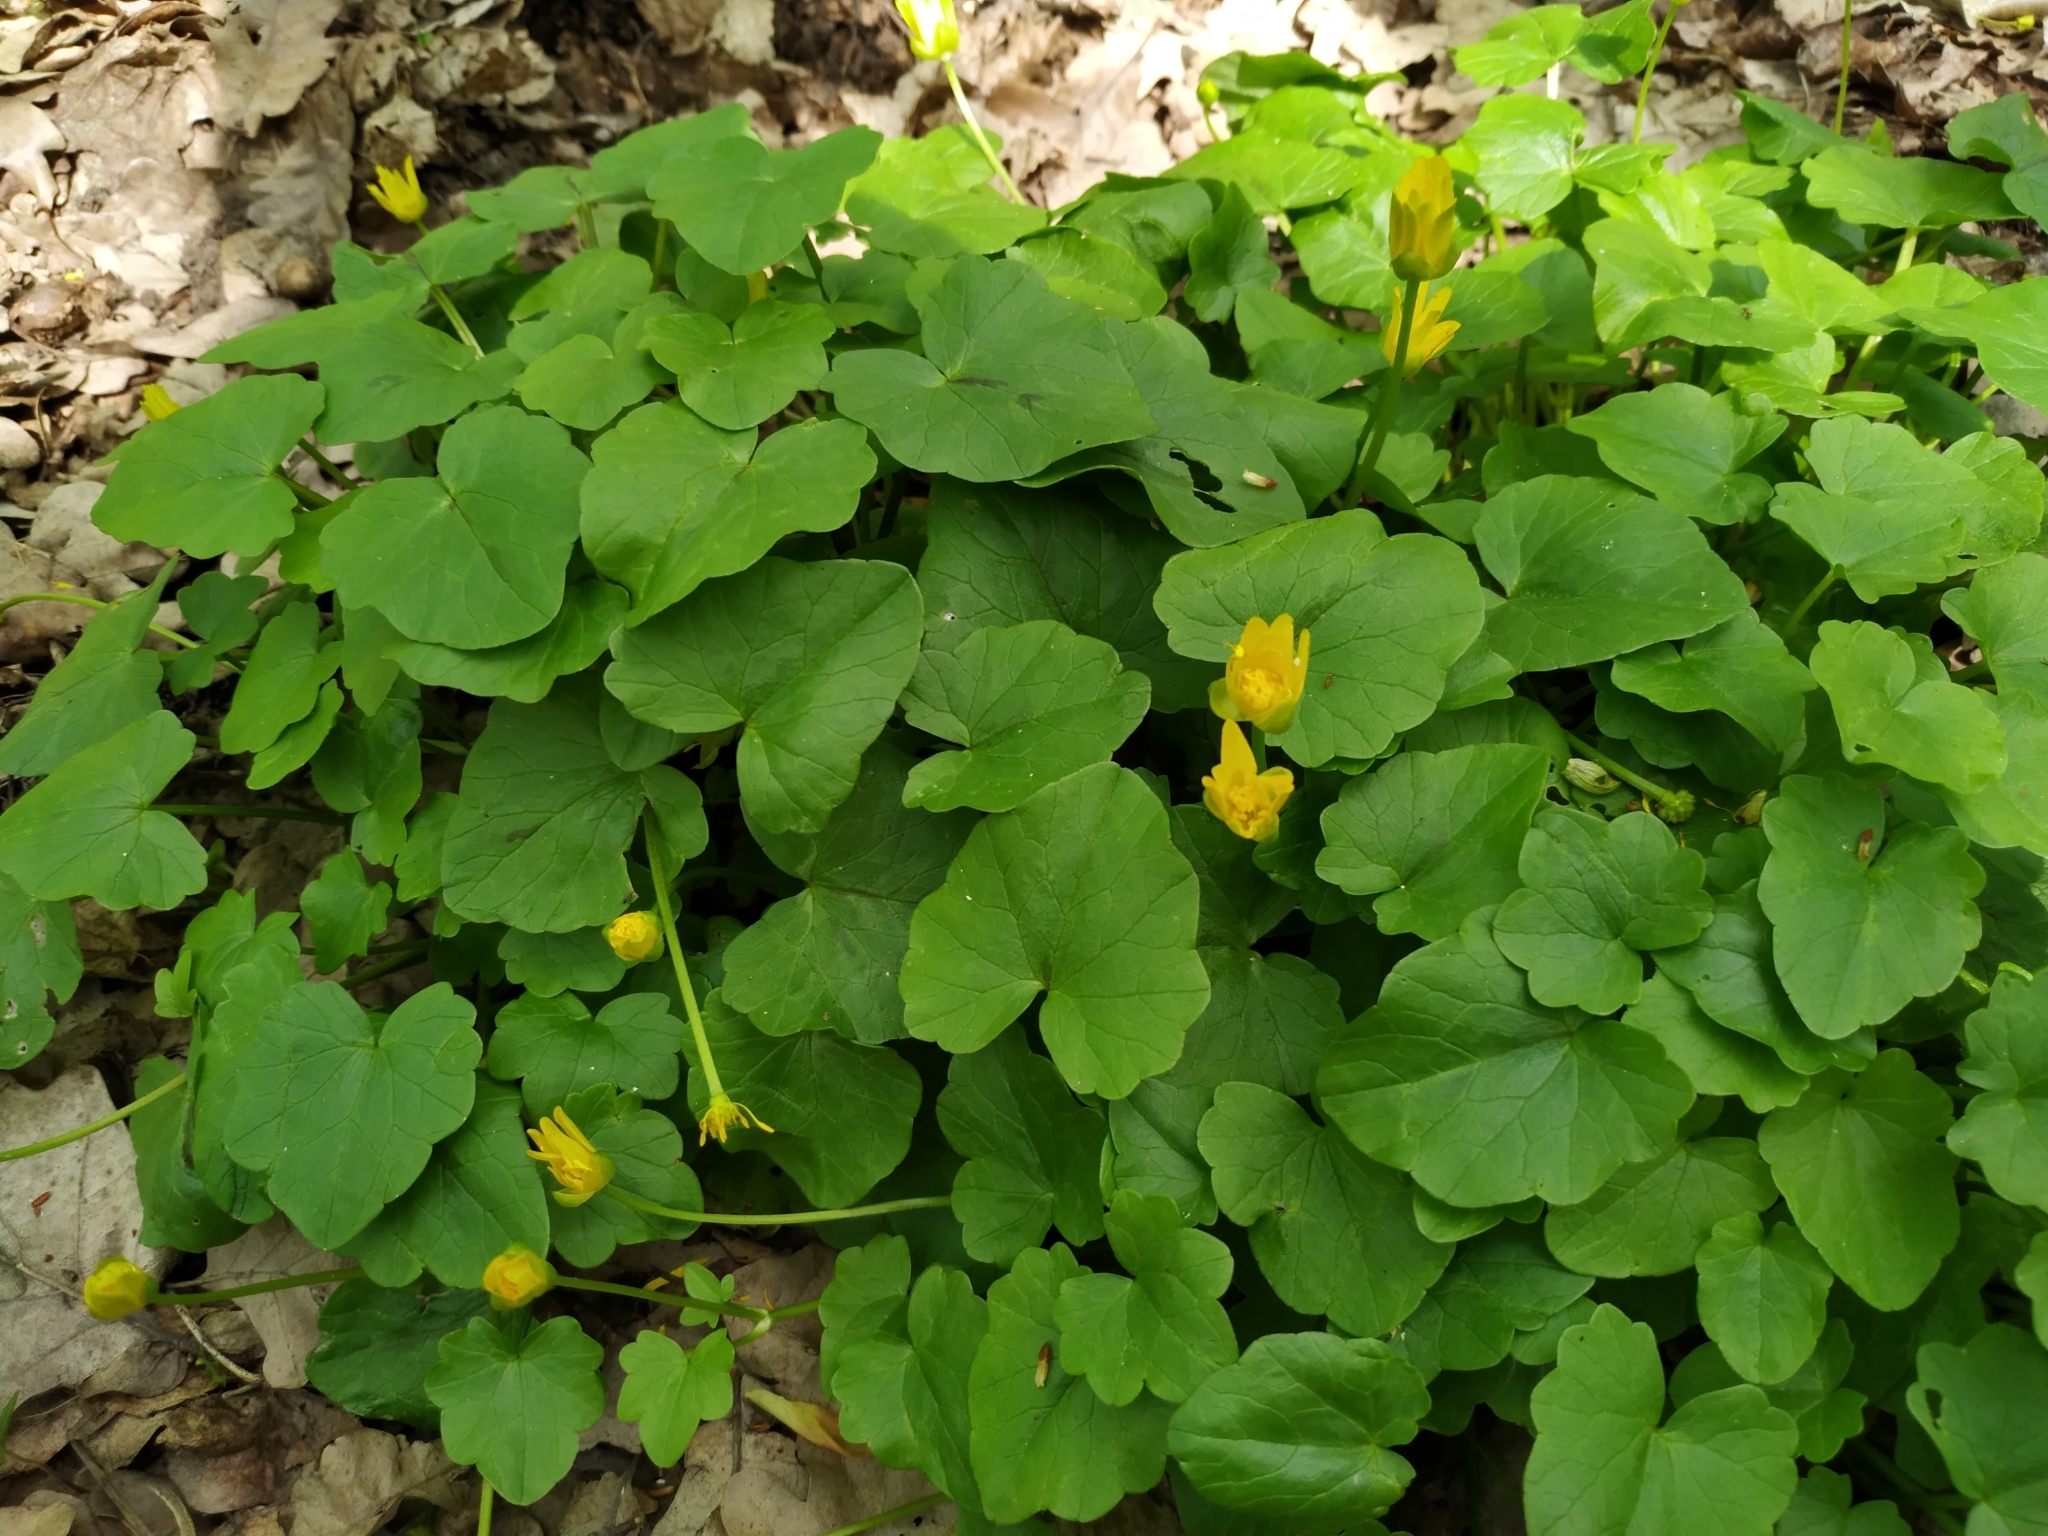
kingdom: Plantae
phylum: Tracheophyta
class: Magnoliopsida
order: Ranunculales
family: Ranunculaceae
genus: Ficaria
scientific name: Ficaria verna
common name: Lesser celandine
